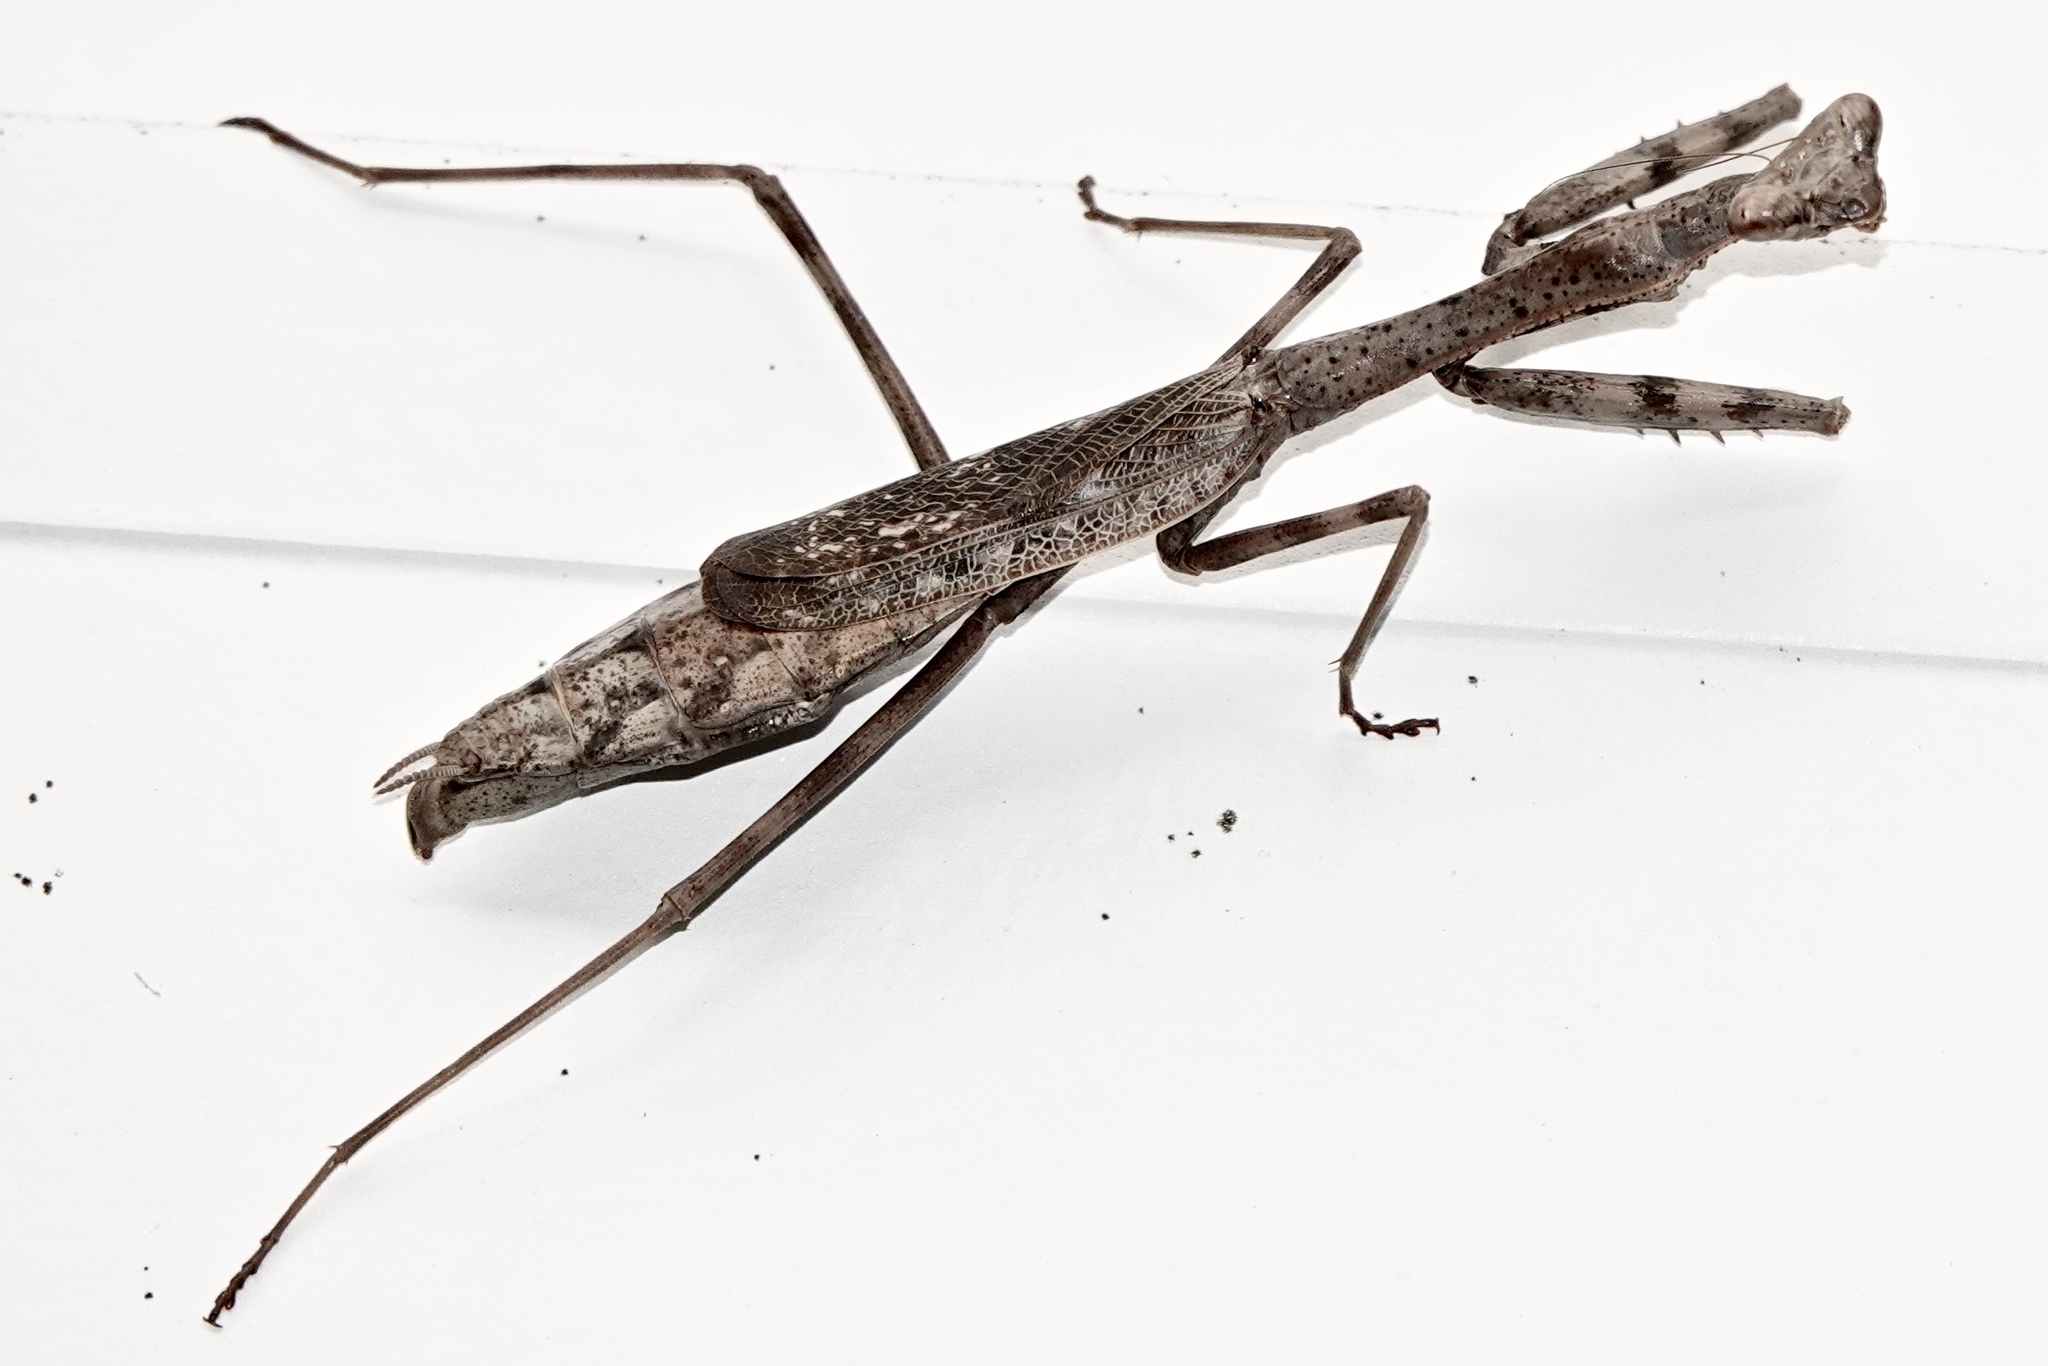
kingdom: Animalia
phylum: Arthropoda
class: Insecta
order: Mantodea
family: Mantidae
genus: Stagmomantis
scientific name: Stagmomantis carolina
